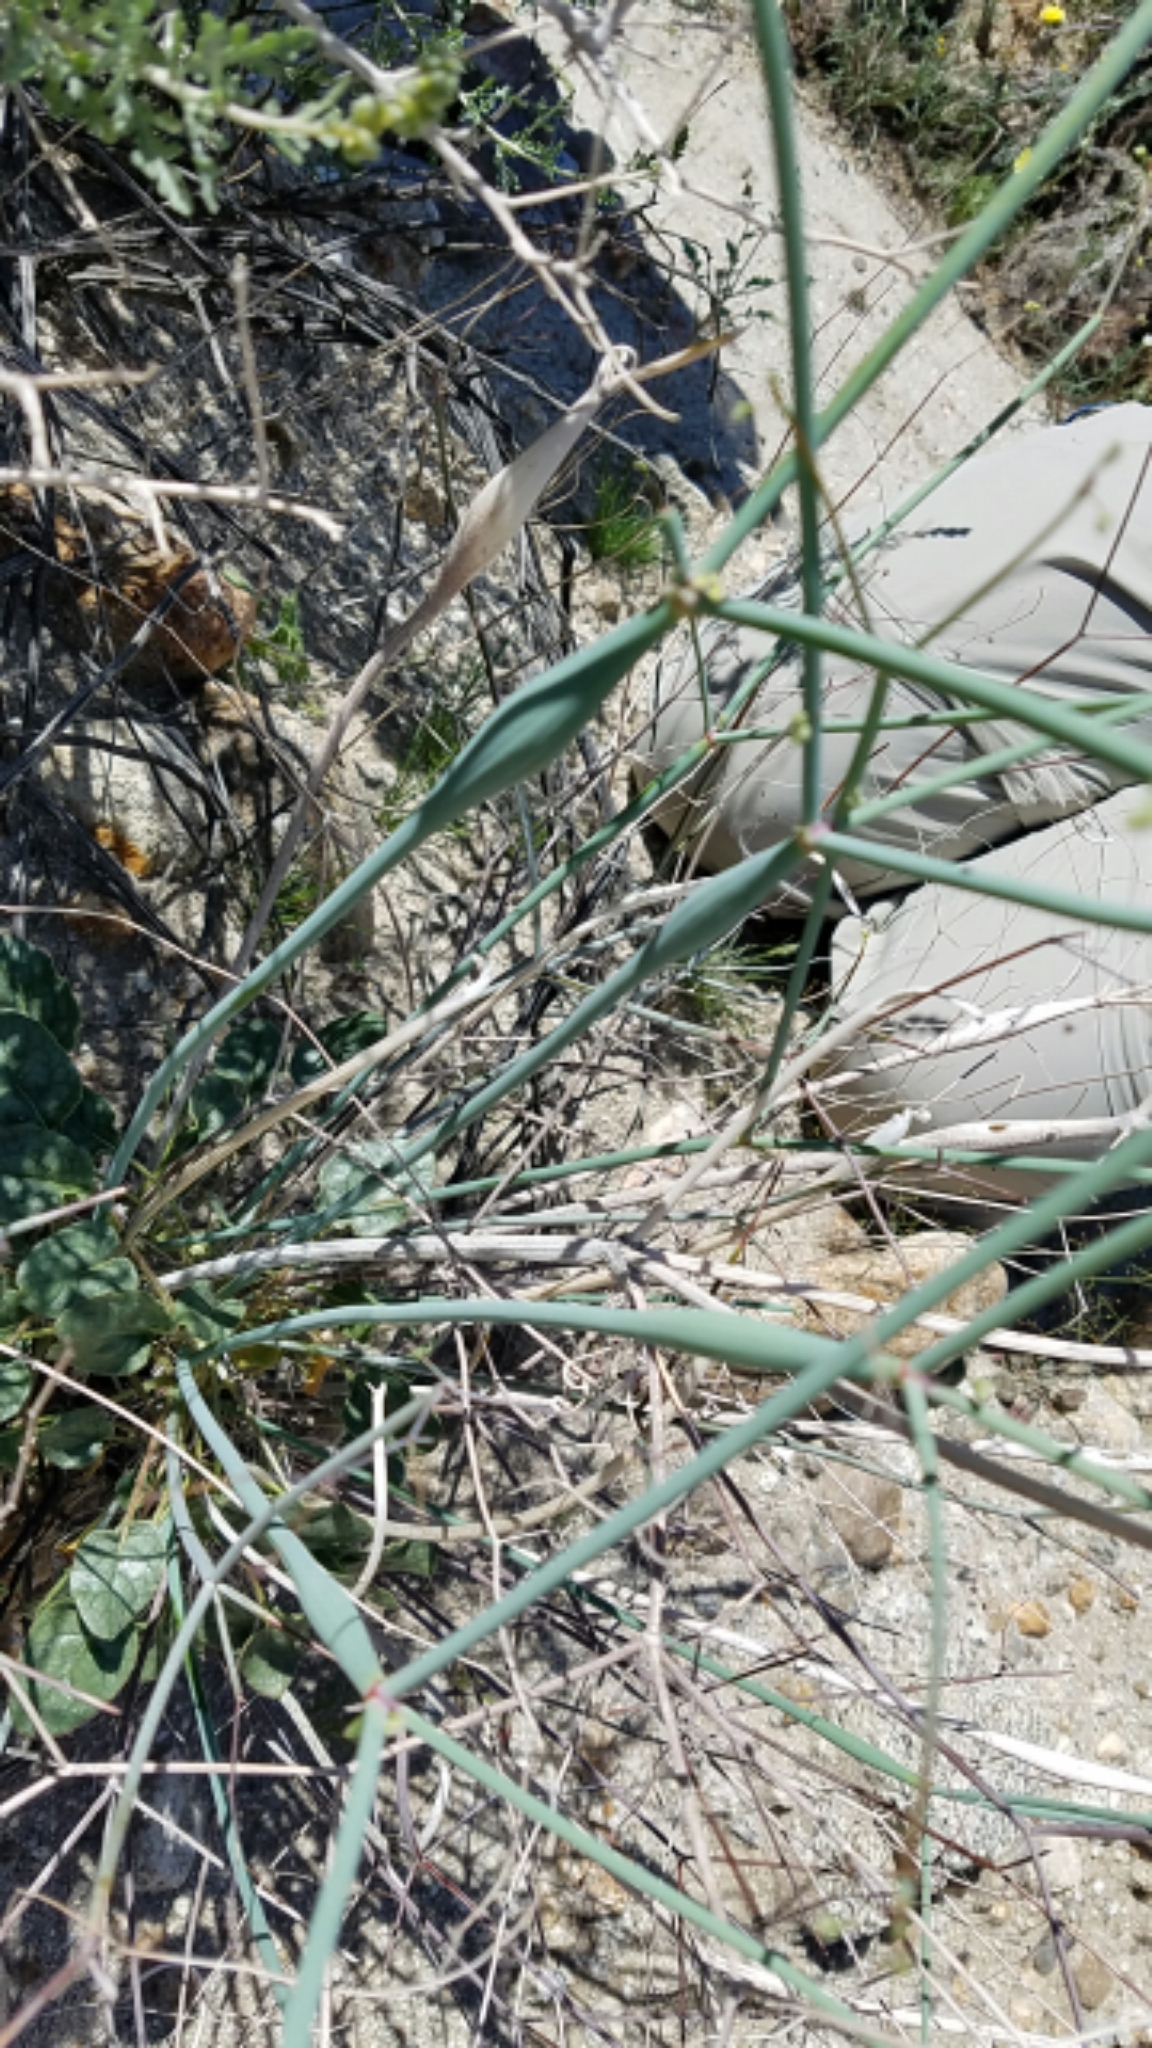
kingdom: Plantae
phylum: Tracheophyta
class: Magnoliopsida
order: Caryophyllales
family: Polygonaceae
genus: Eriogonum
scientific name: Eriogonum inflatum
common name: Desert trumpet
